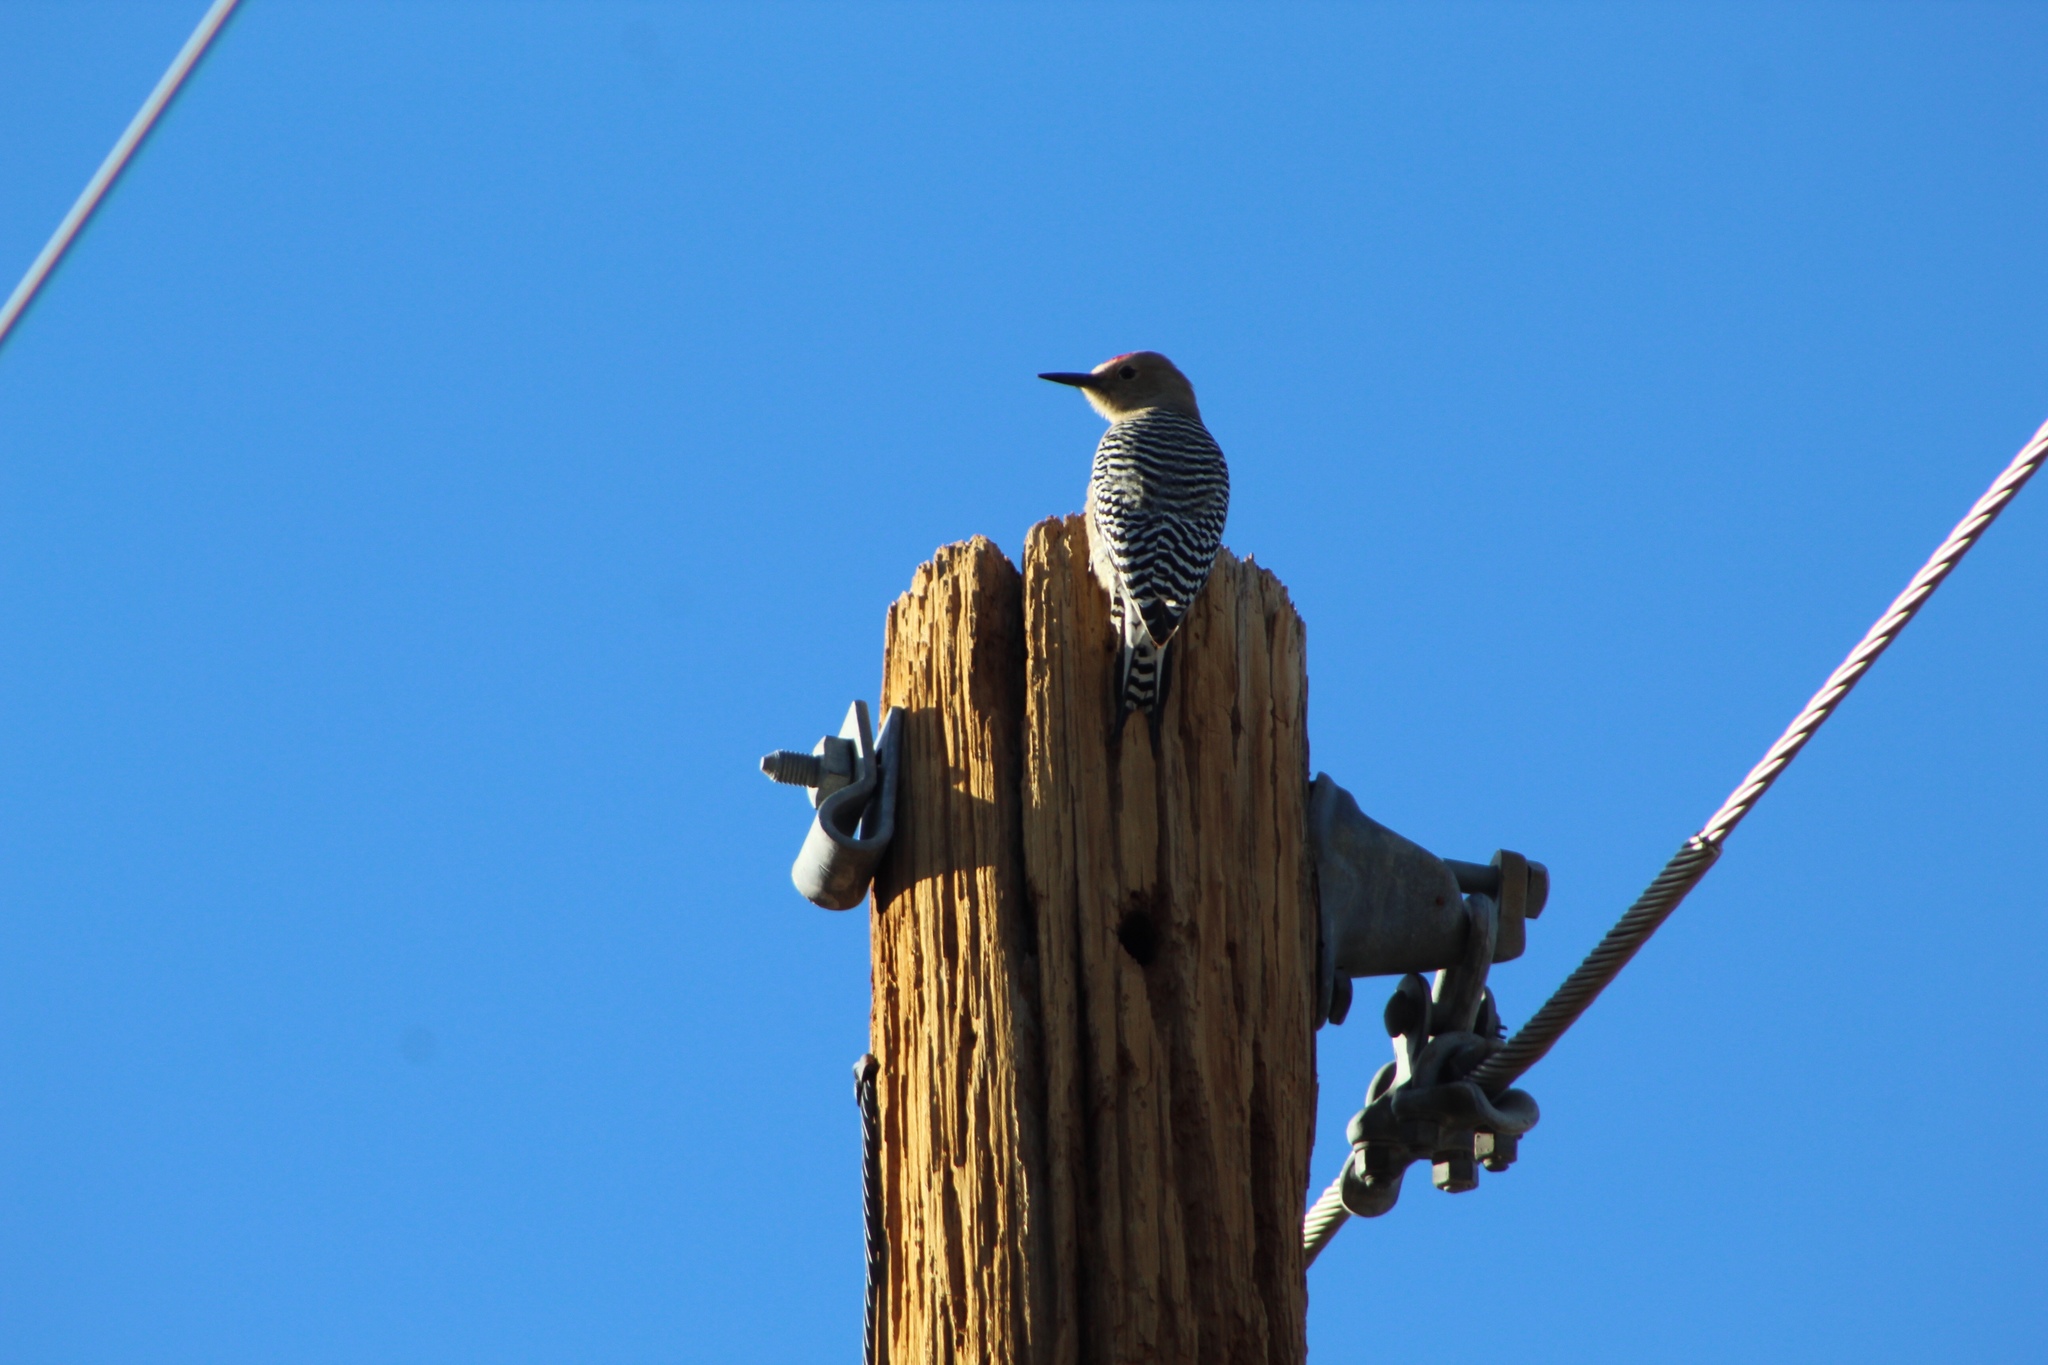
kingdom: Animalia
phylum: Chordata
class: Aves
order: Piciformes
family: Picidae
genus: Melanerpes
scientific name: Melanerpes uropygialis
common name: Gila woodpecker
